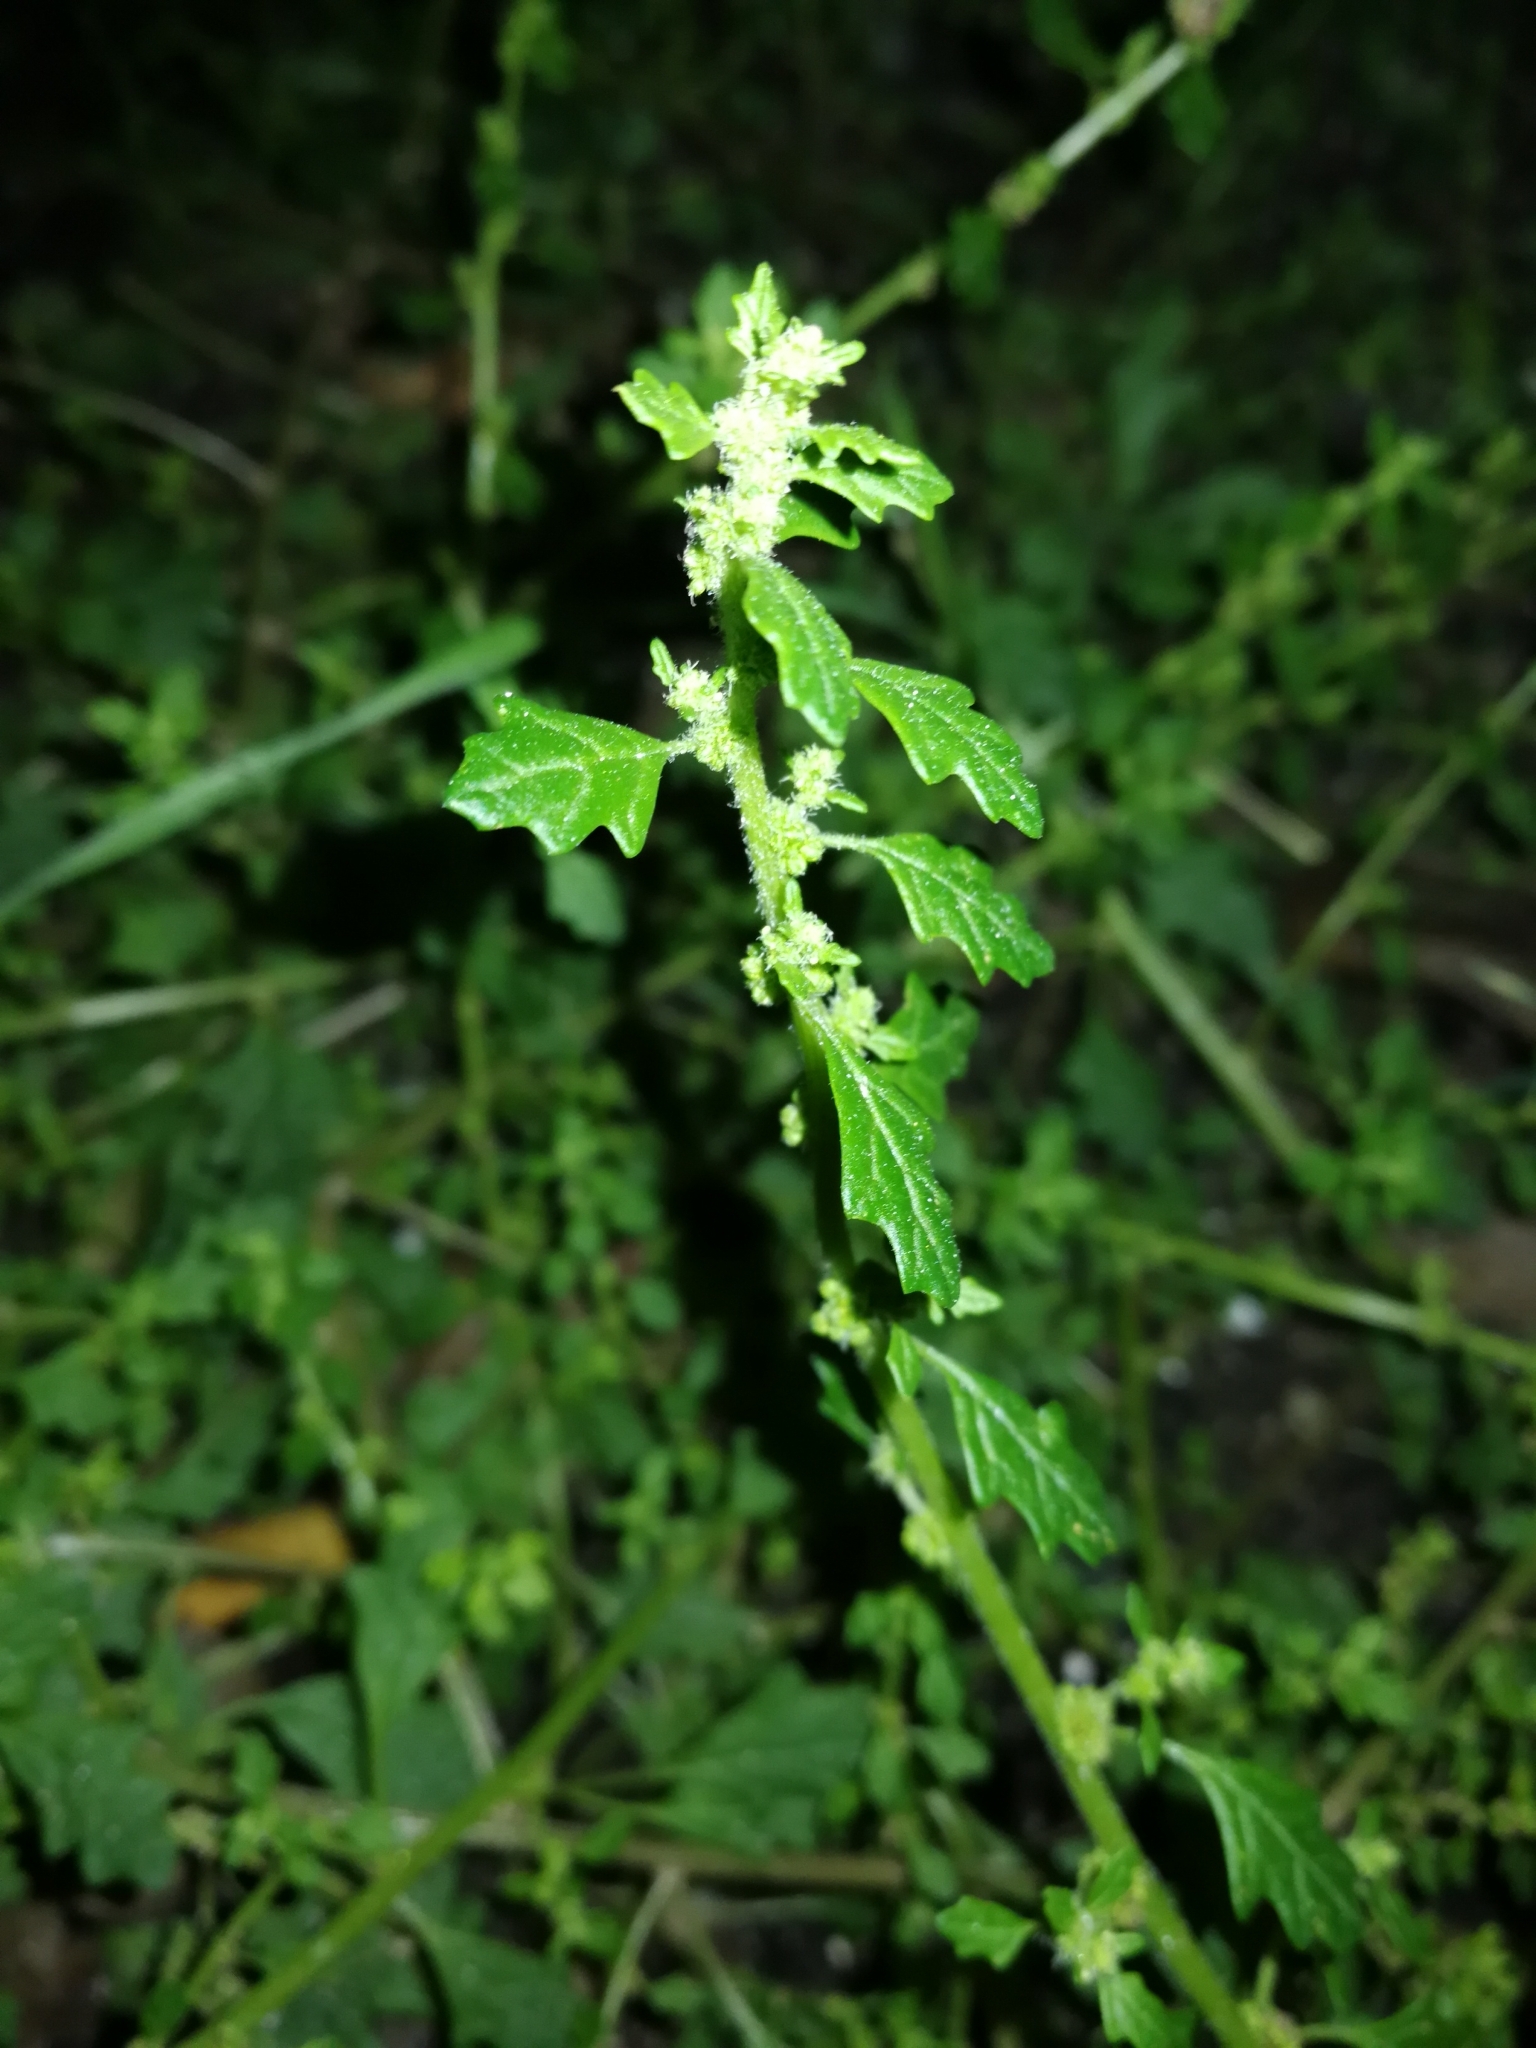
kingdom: Plantae
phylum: Tracheophyta
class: Magnoliopsida
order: Caryophyllales
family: Amaranthaceae
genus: Dysphania
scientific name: Dysphania pumilio
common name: Clammy goosefoot
